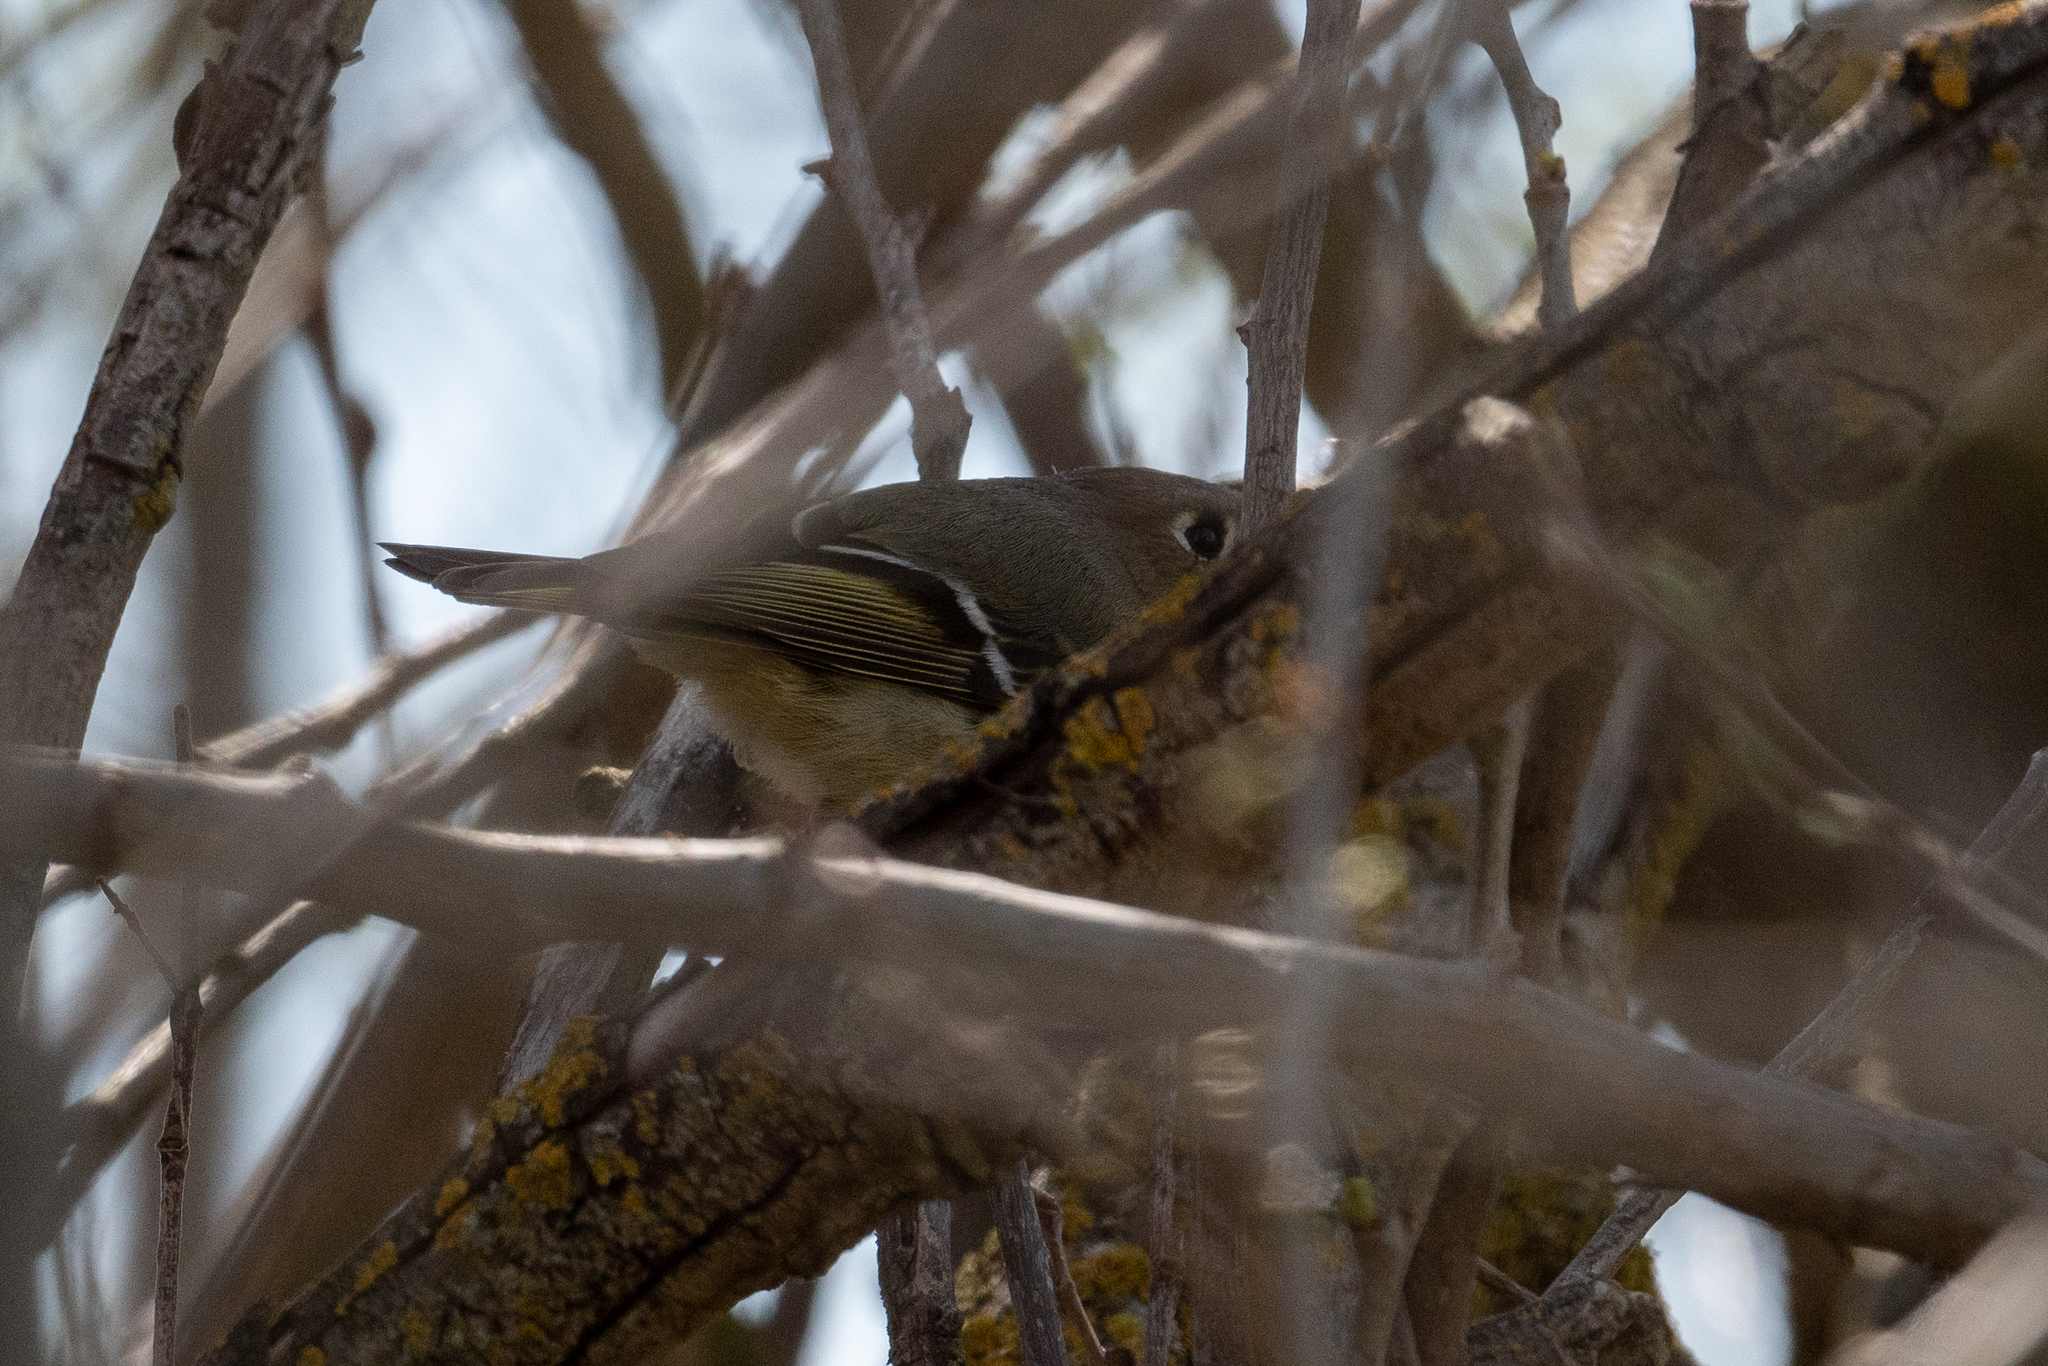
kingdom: Animalia
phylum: Chordata
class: Aves
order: Passeriformes
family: Regulidae
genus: Regulus
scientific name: Regulus calendula
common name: Ruby-crowned kinglet
